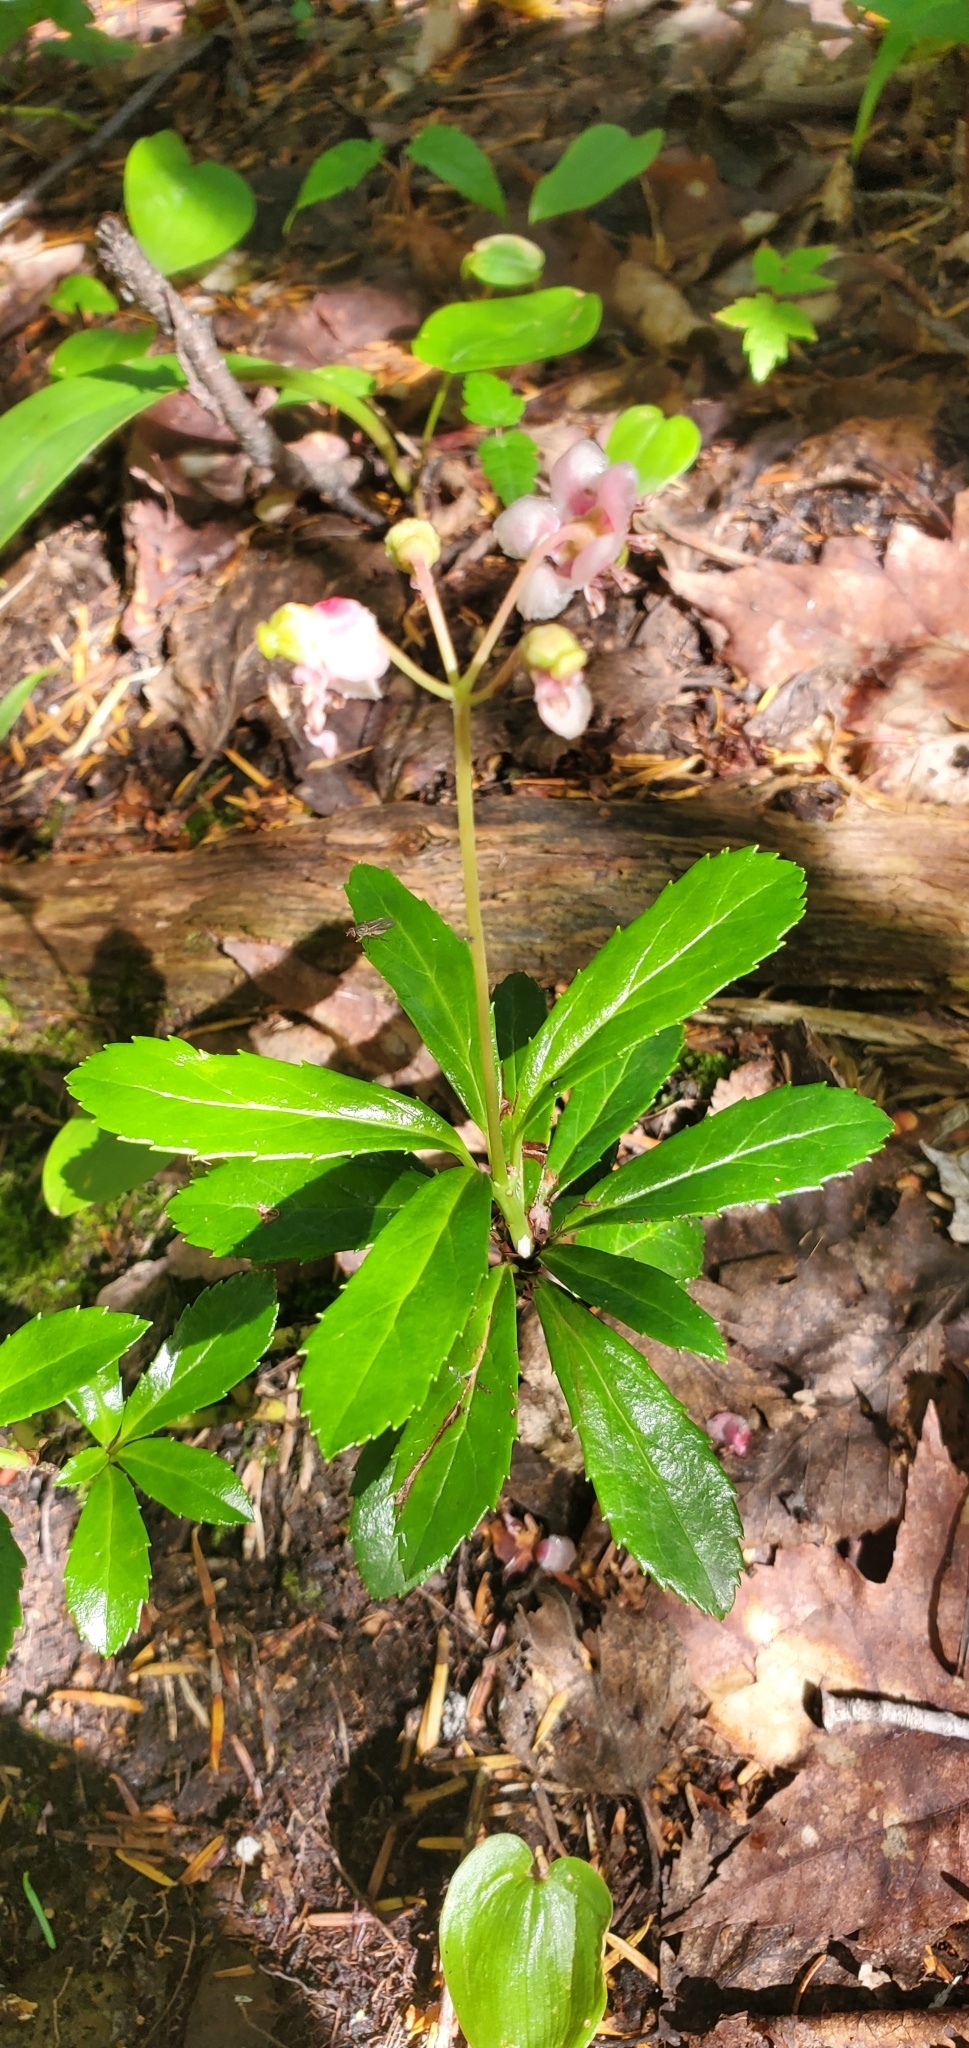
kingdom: Plantae
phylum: Tracheophyta
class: Magnoliopsida
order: Ericales
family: Ericaceae
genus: Chimaphila
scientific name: Chimaphila umbellata
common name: Pipsissewa
